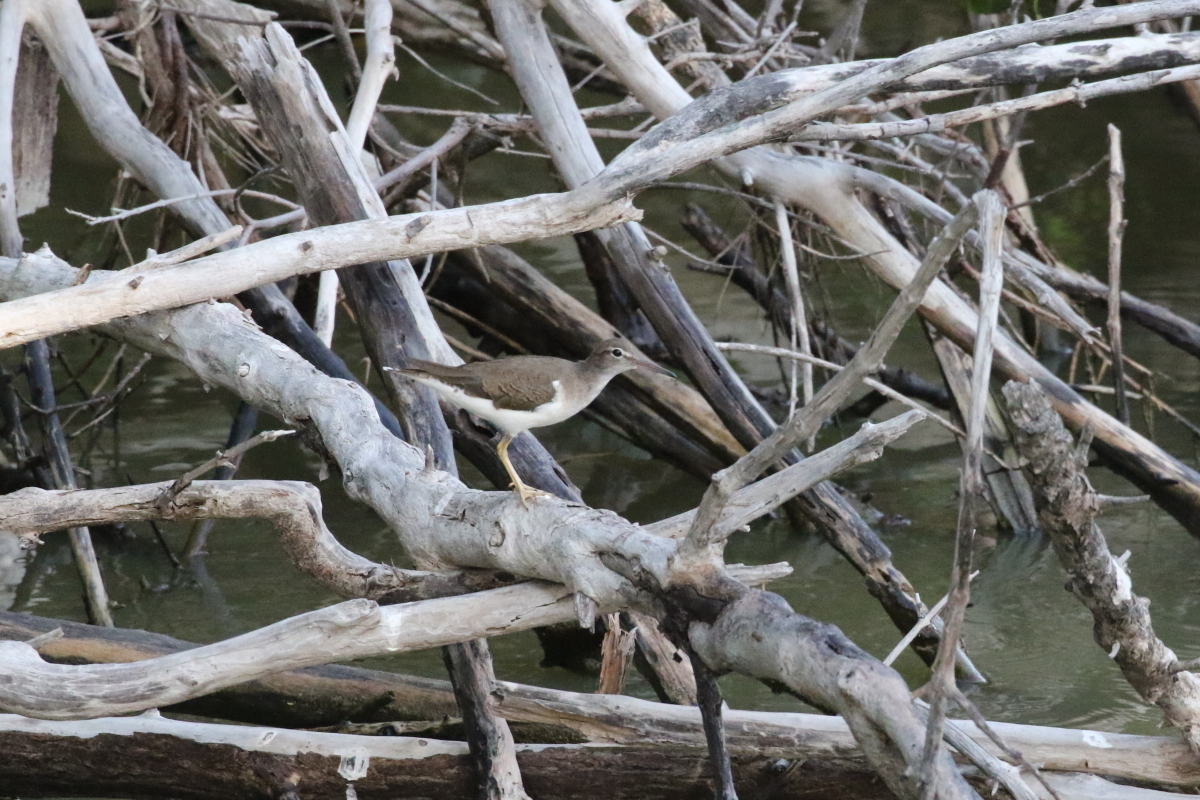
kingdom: Animalia
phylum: Chordata
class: Aves
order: Charadriiformes
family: Scolopacidae
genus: Actitis
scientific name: Actitis macularius
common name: Spotted sandpiper
